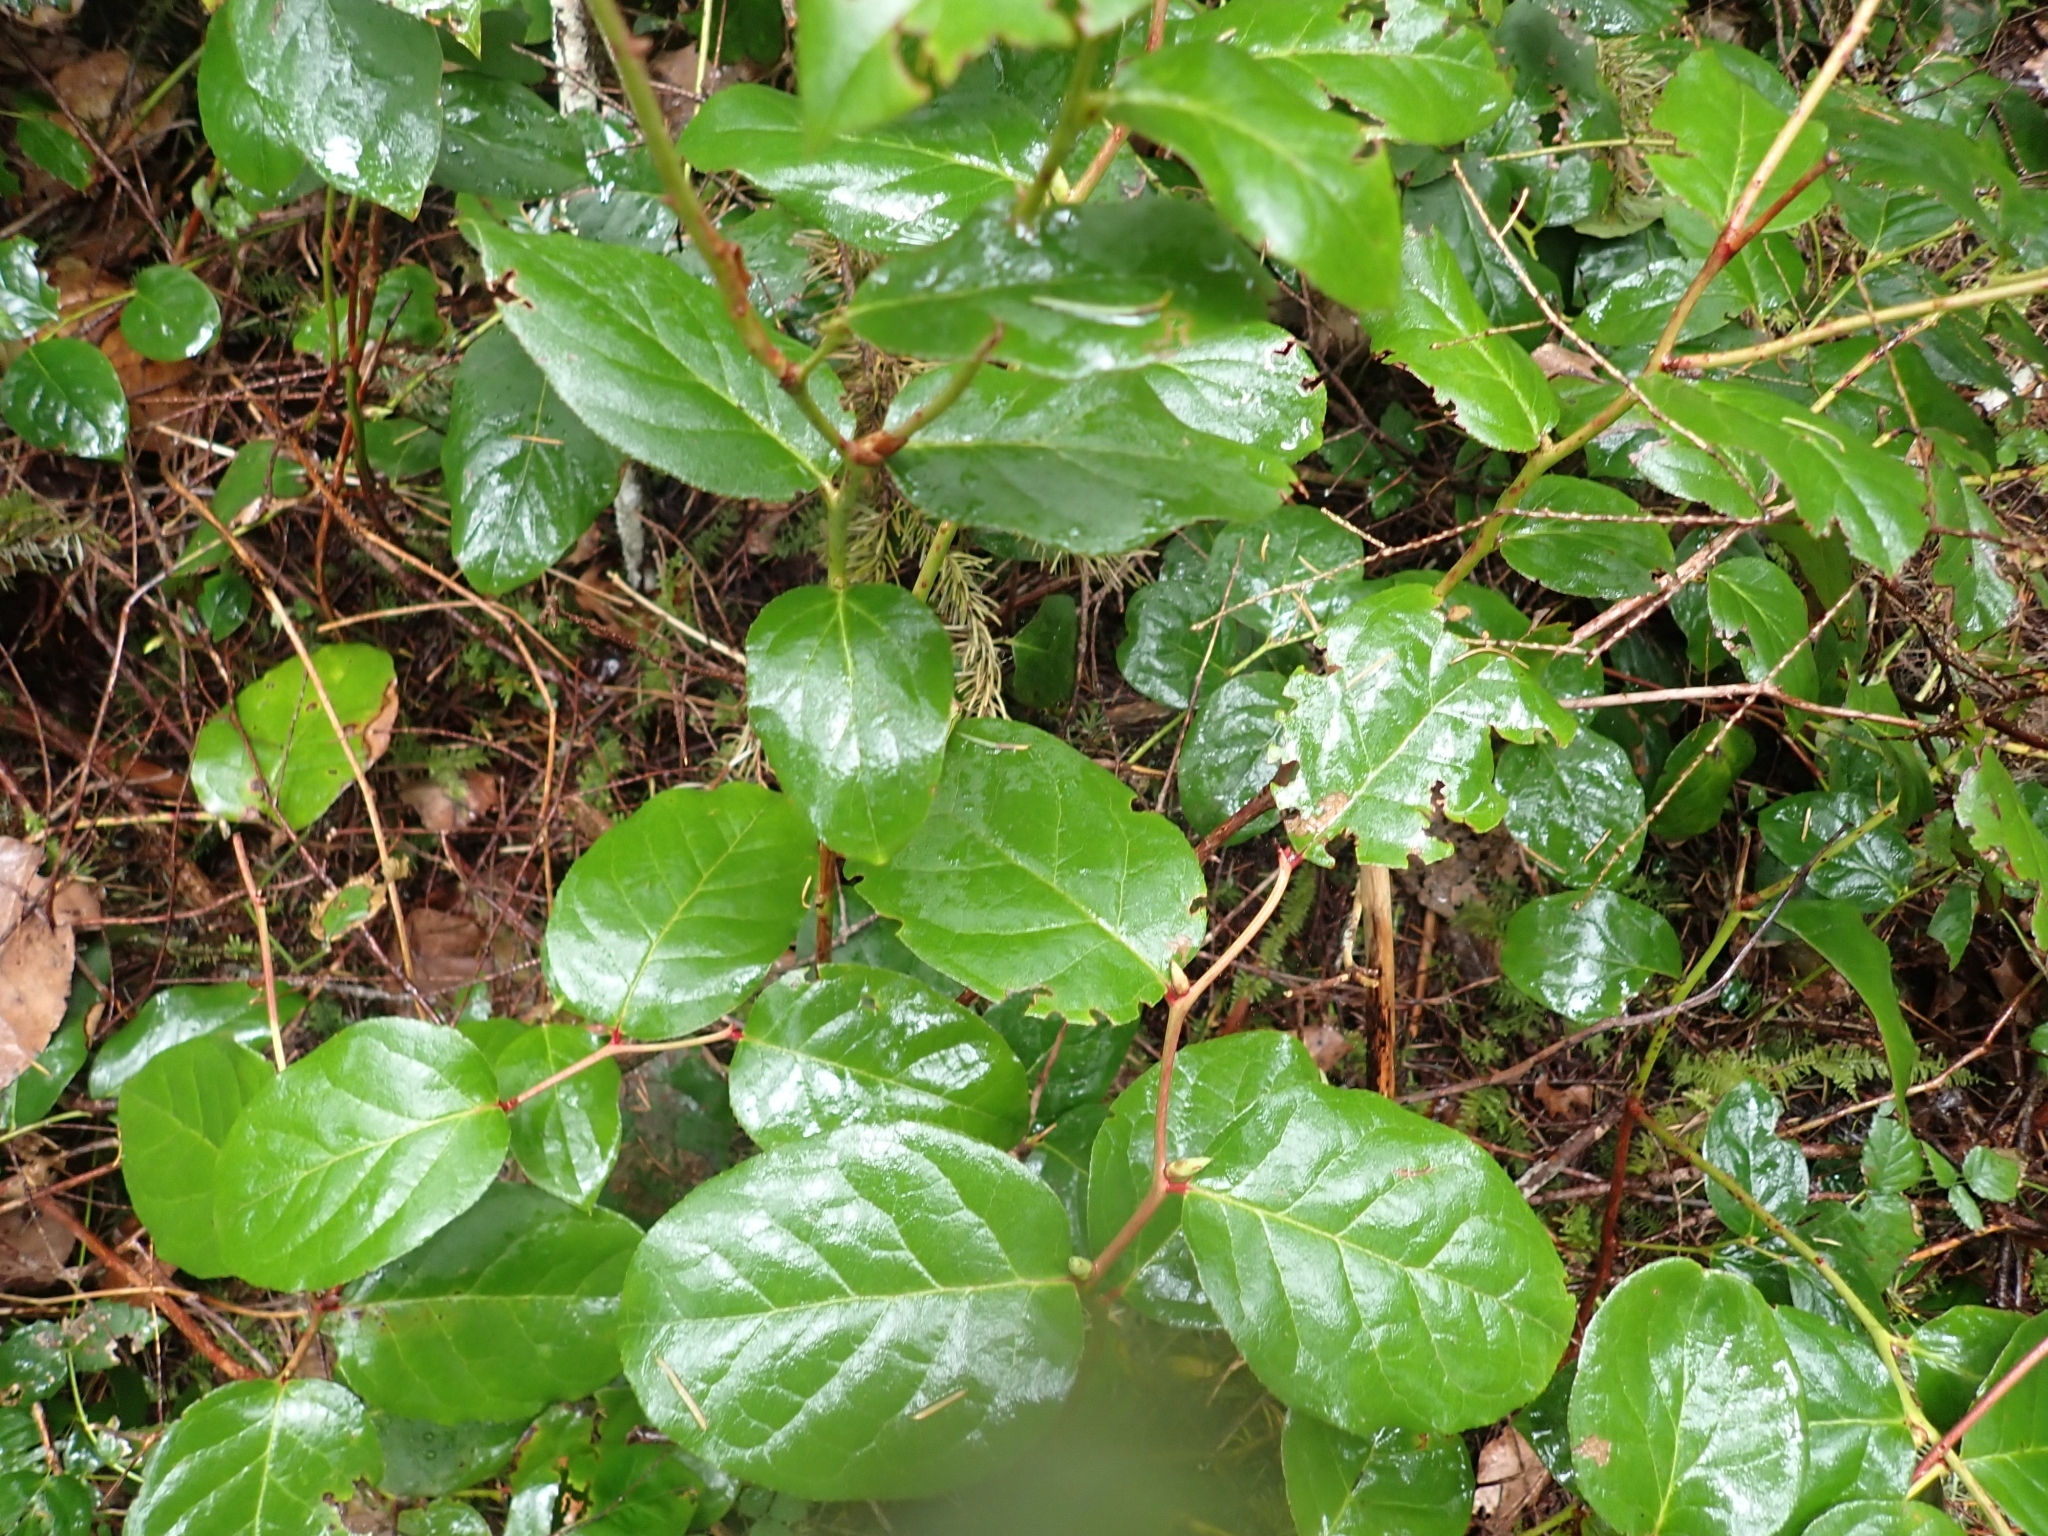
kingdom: Plantae
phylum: Tracheophyta
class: Magnoliopsida
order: Ericales
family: Ericaceae
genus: Gaultheria
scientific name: Gaultheria shallon
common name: Shallon
